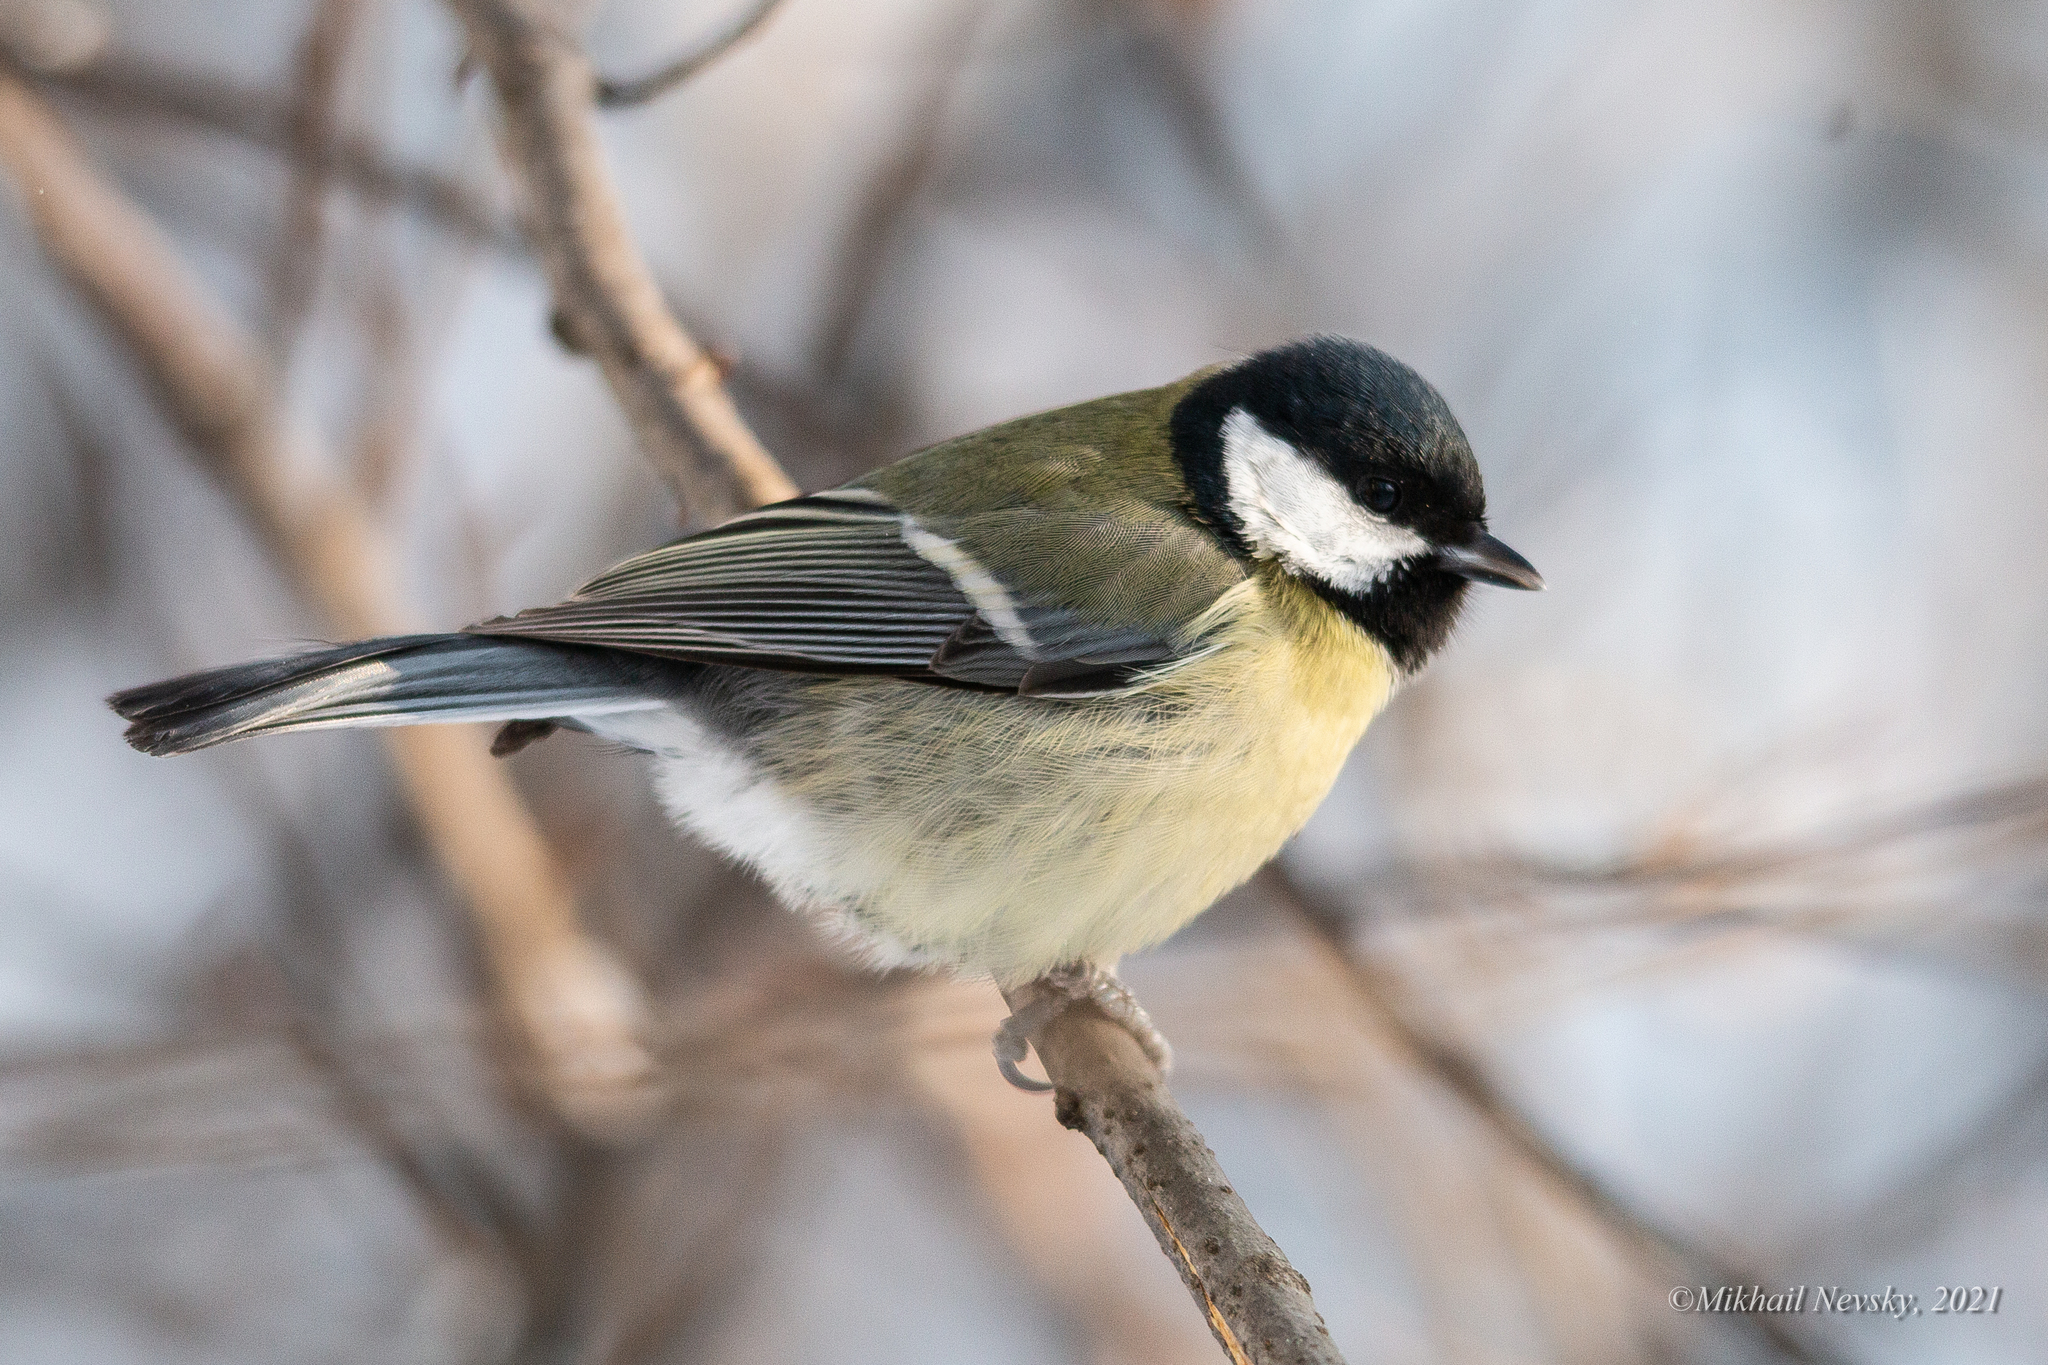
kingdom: Animalia
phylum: Chordata
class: Aves
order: Passeriformes
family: Paridae
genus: Parus
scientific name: Parus major
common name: Great tit
